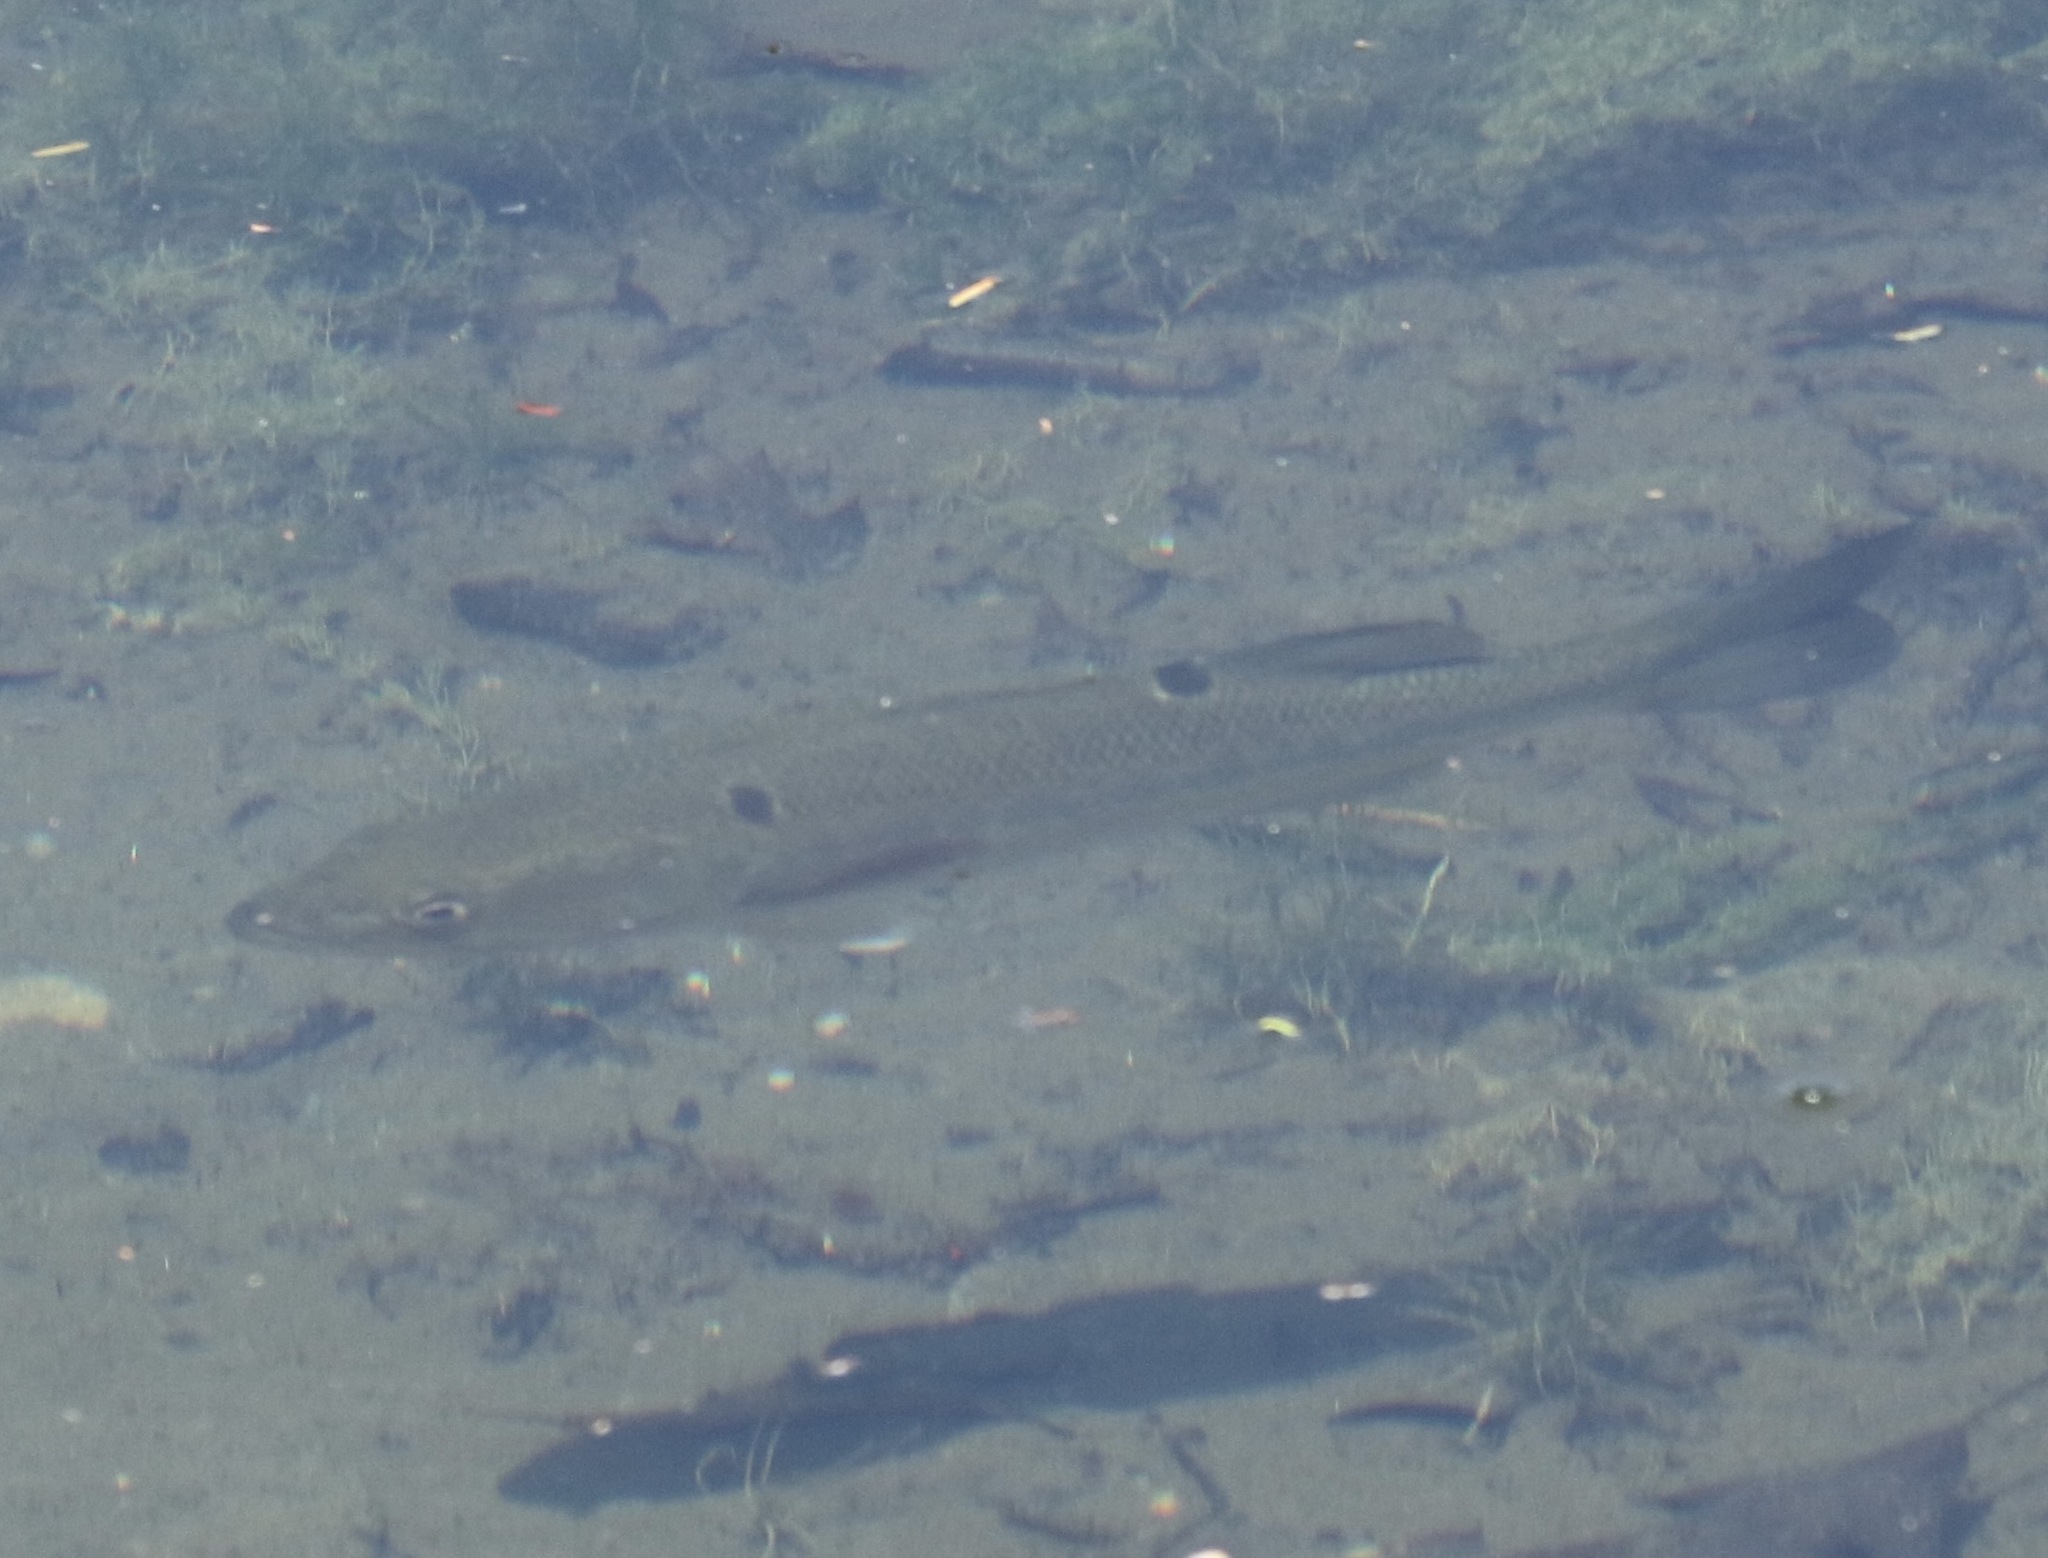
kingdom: Animalia
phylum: Chordata
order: Perciformes
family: Centrarchidae
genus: Micropterus
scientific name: Micropterus
